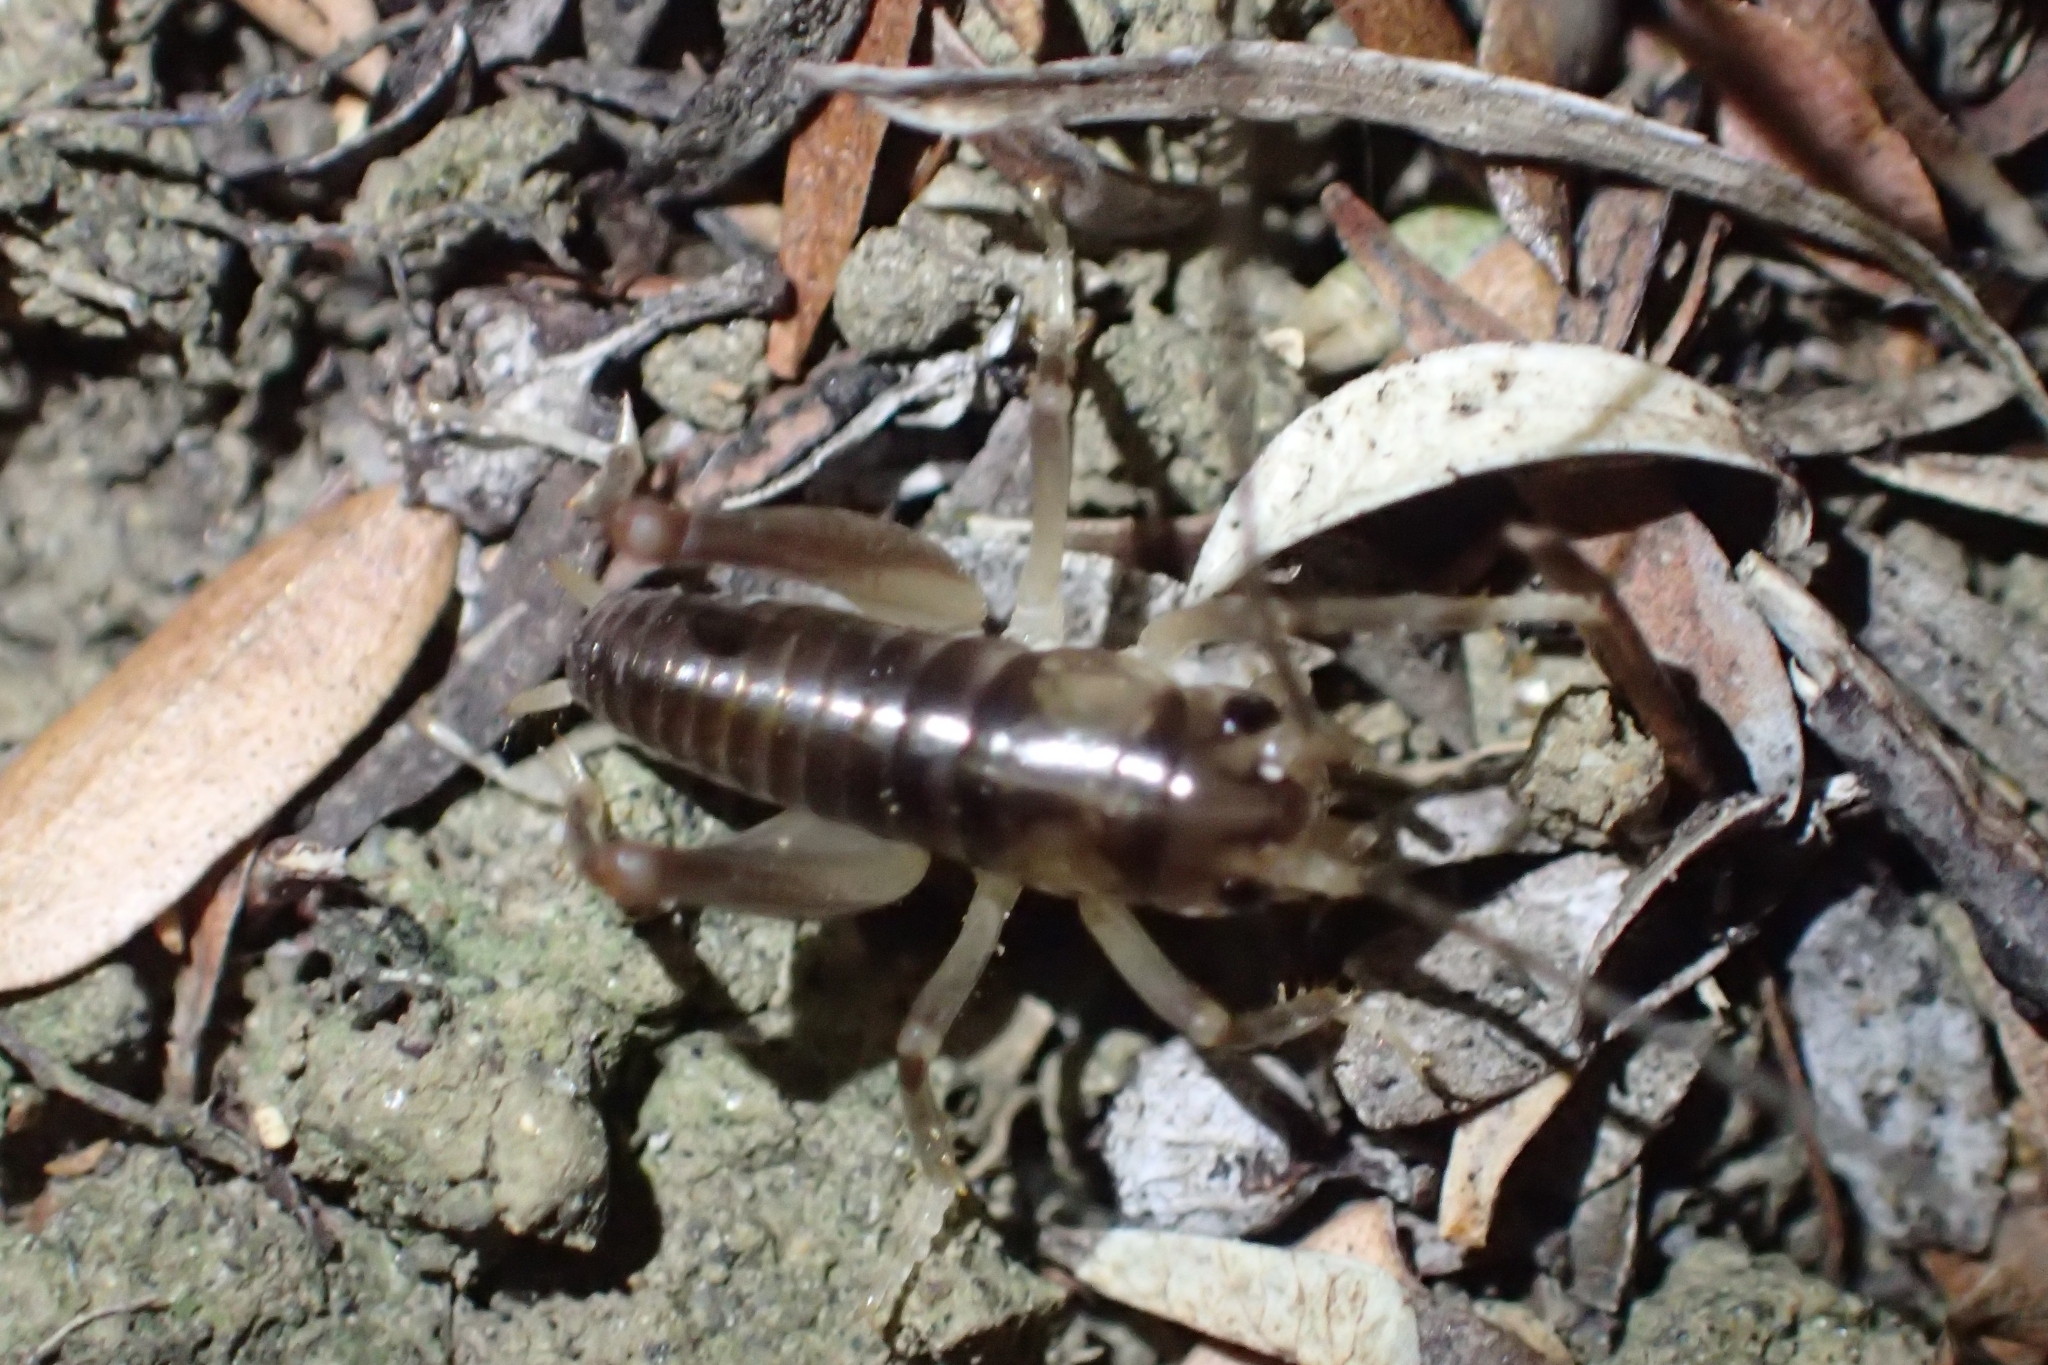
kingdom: Animalia
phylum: Arthropoda
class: Insecta
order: Orthoptera
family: Anostostomatidae
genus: Hemiandrus
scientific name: Hemiandrus pallitarsis
